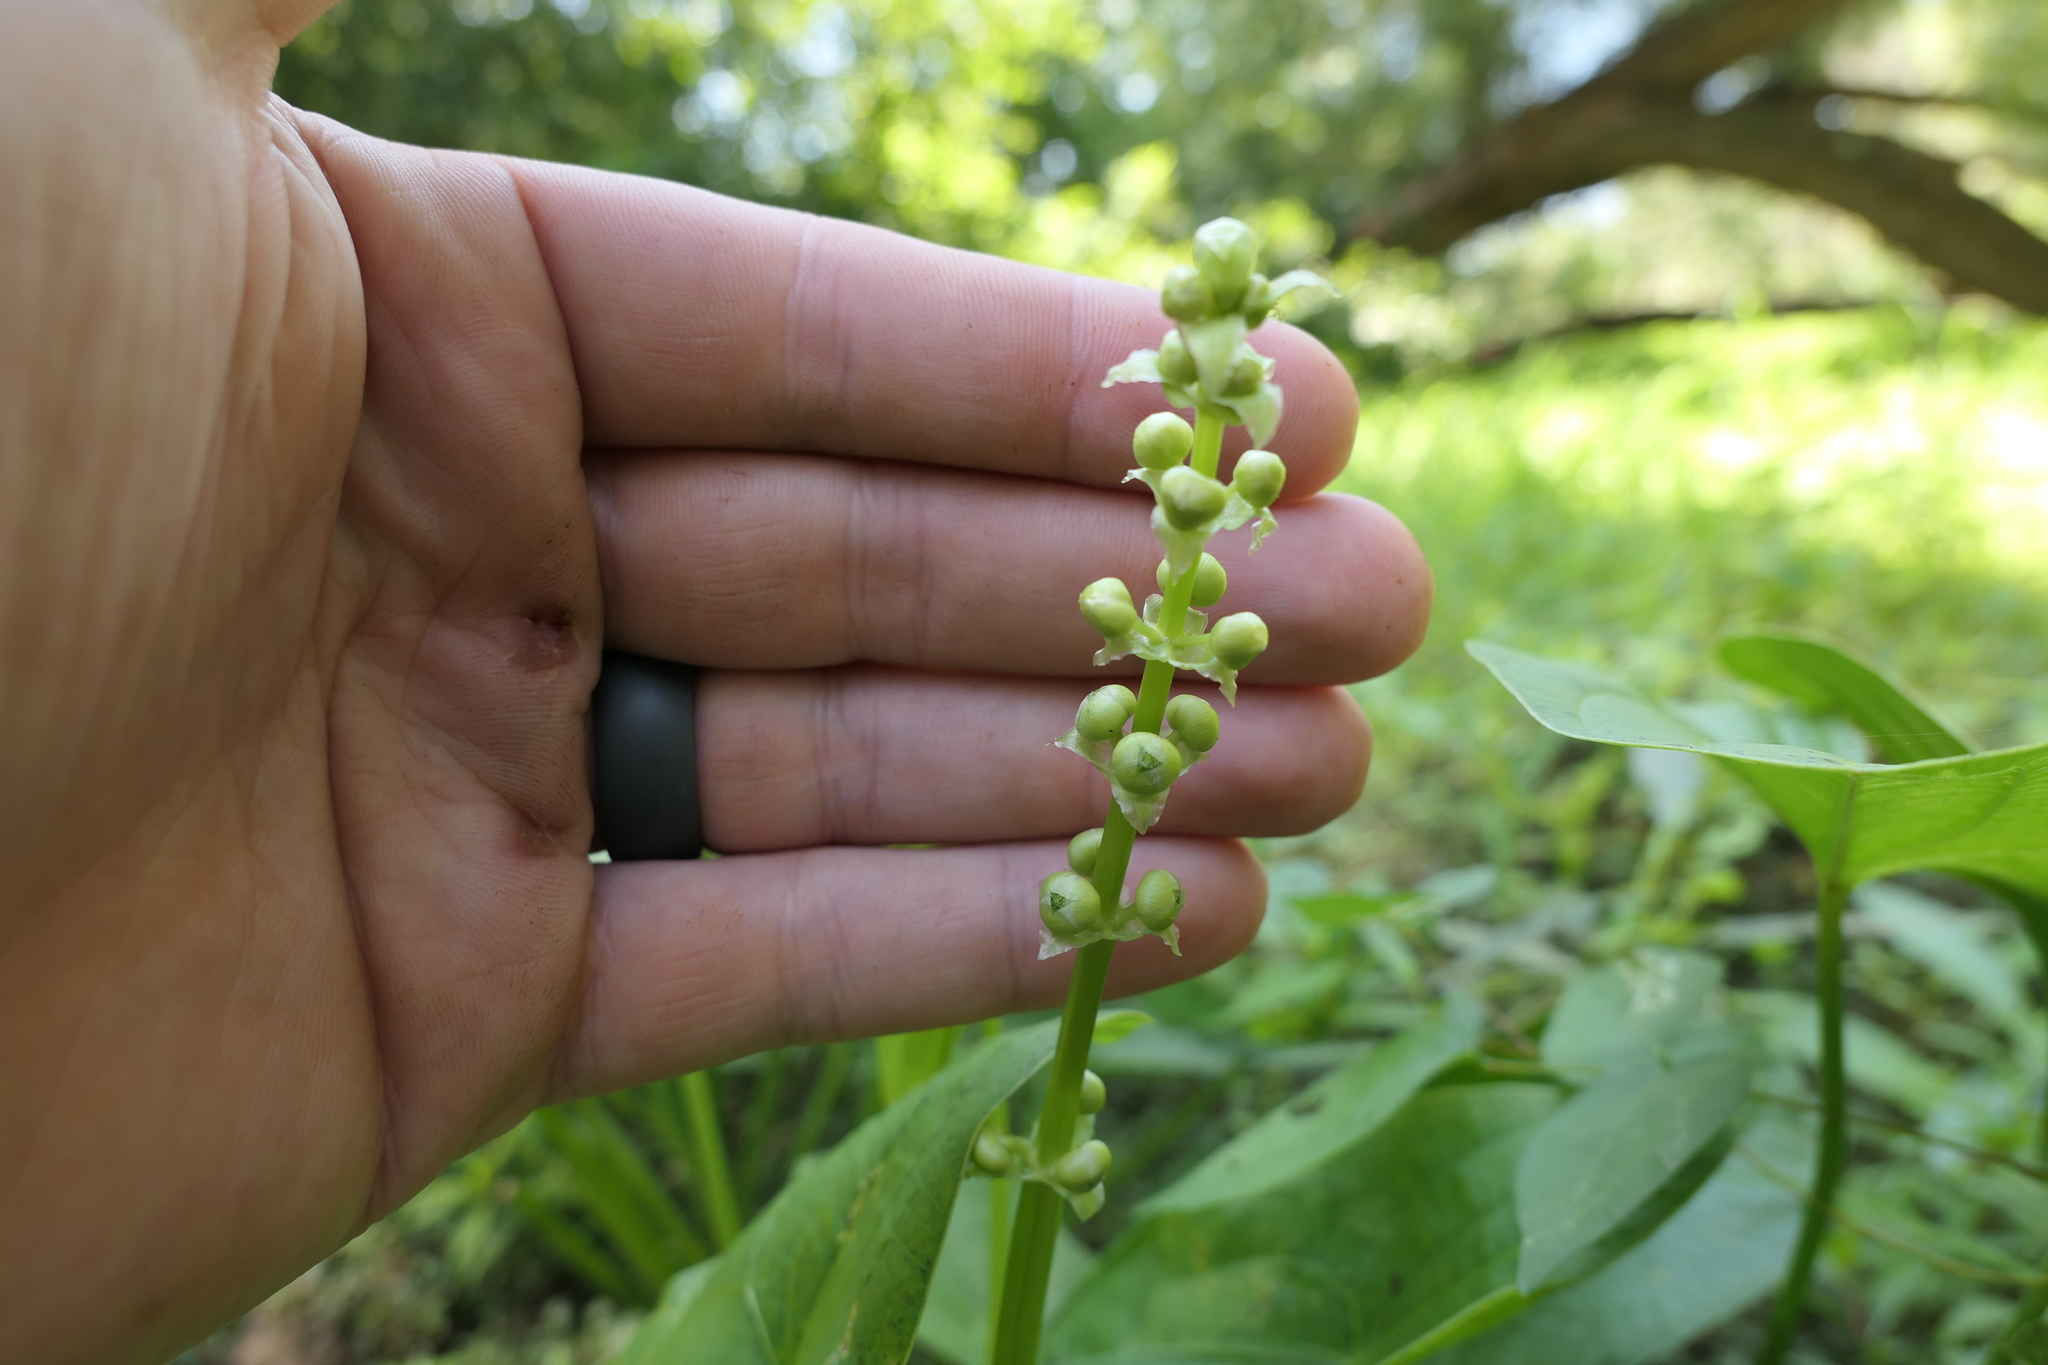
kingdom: Plantae
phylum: Tracheophyta
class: Liliopsida
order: Alismatales
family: Alismataceae
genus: Sagittaria
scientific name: Sagittaria australis
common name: Appalachian arrowhead
